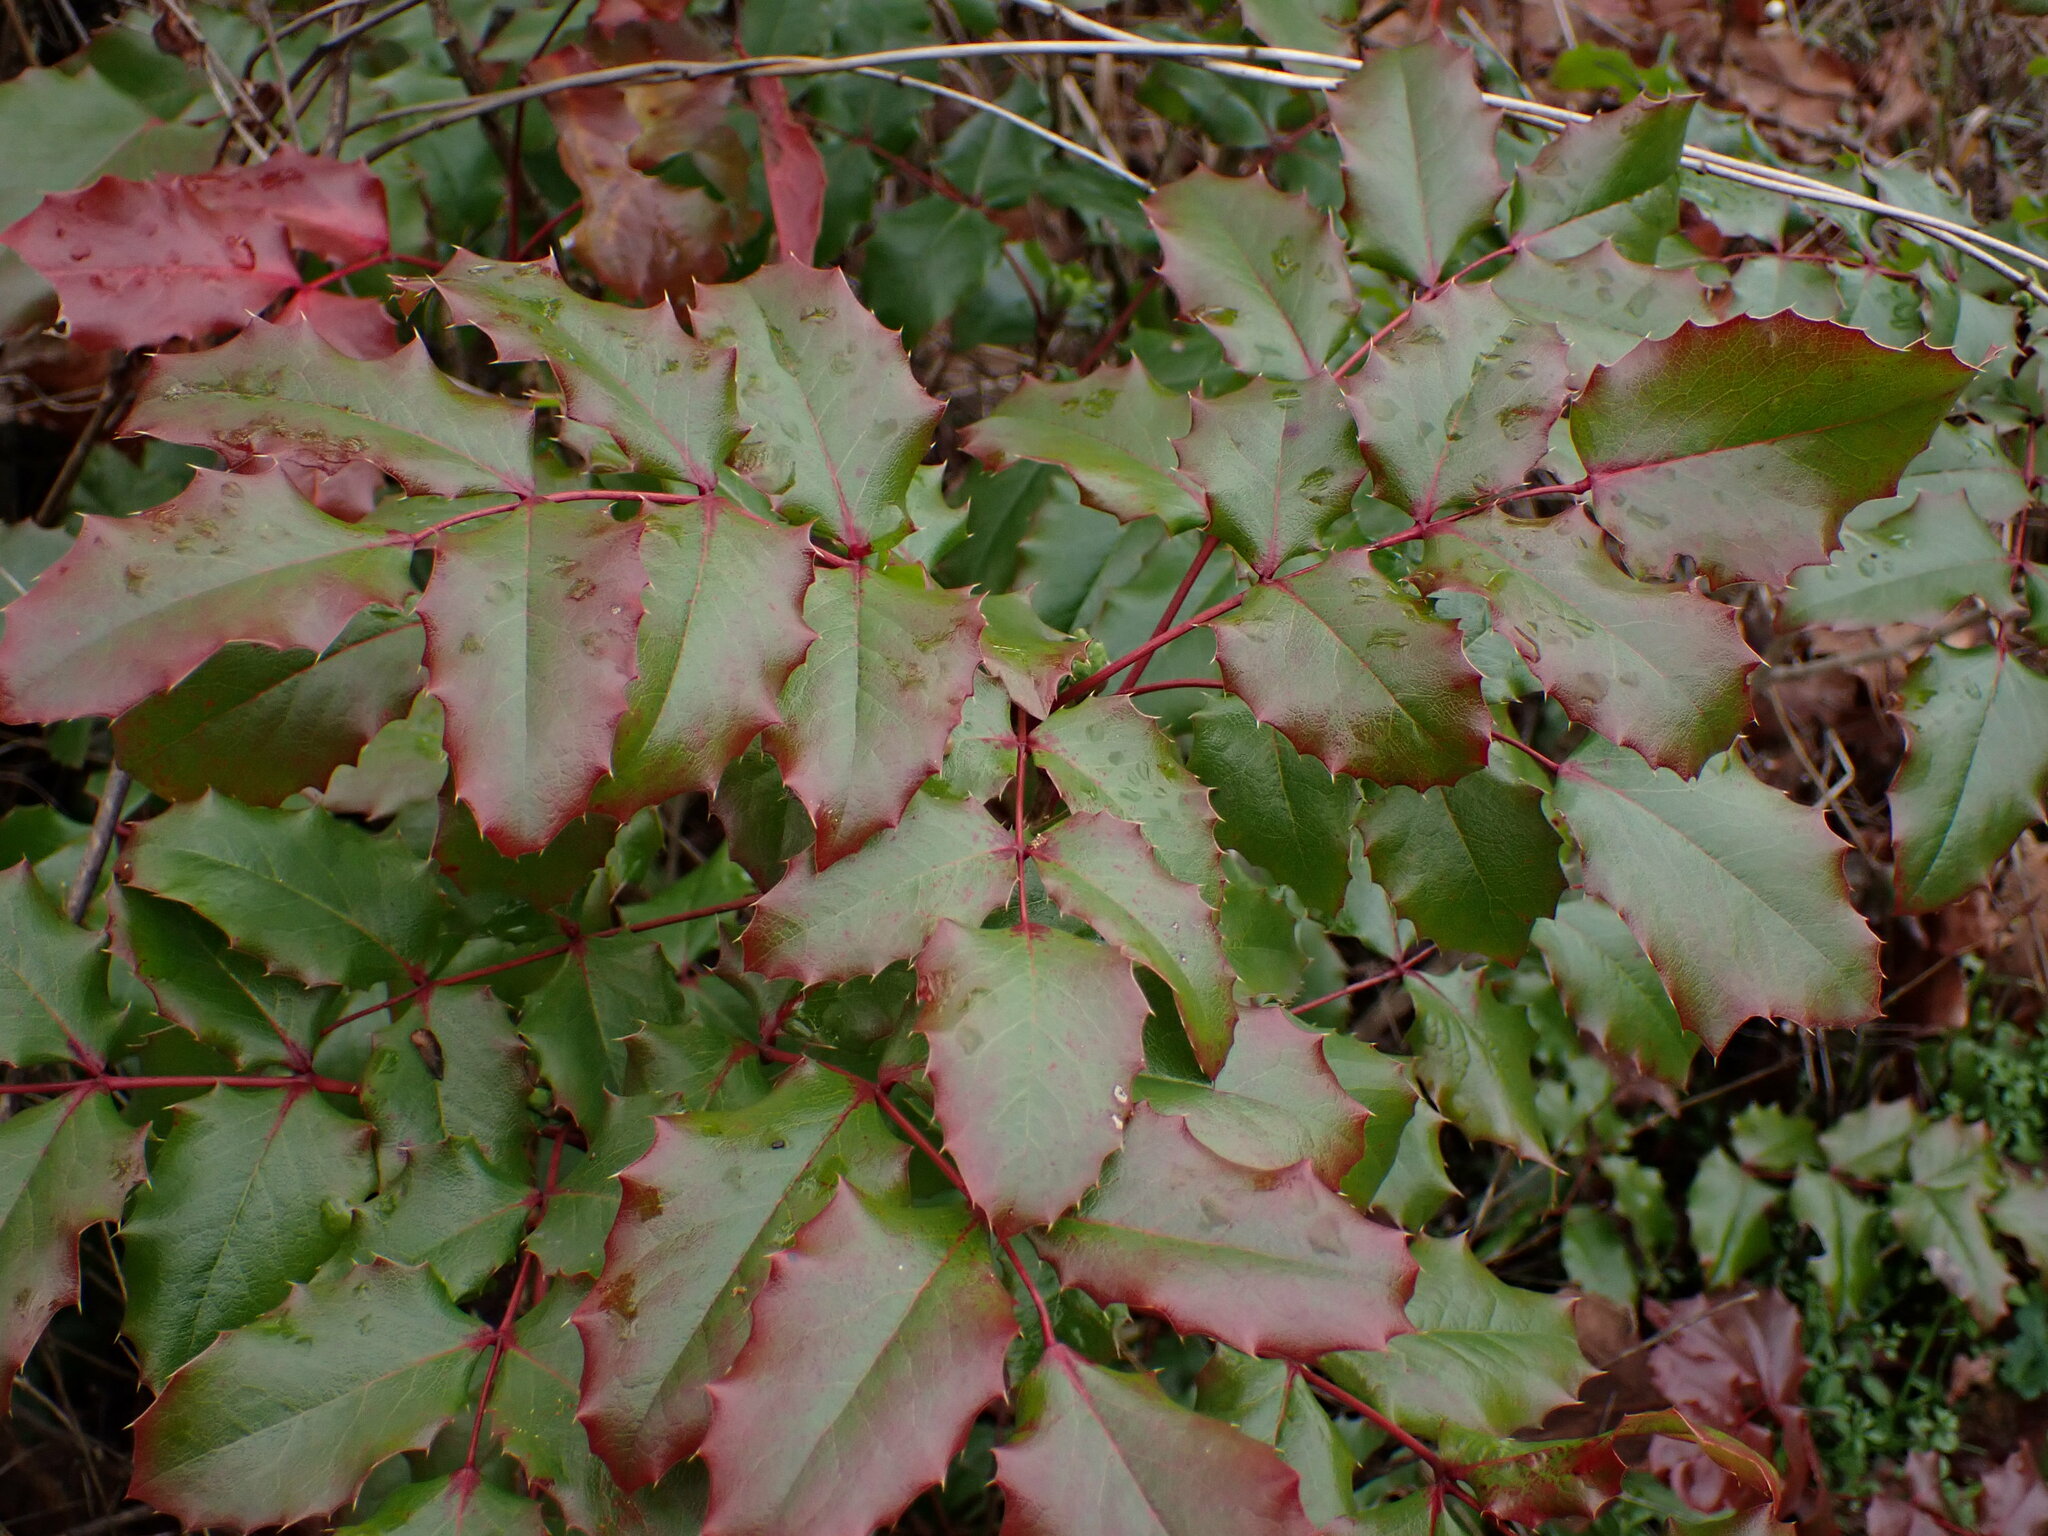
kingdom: Plantae
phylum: Tracheophyta
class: Magnoliopsida
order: Ranunculales
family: Berberidaceae
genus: Mahonia
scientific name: Mahonia aquifolium
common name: Oregon-grape
